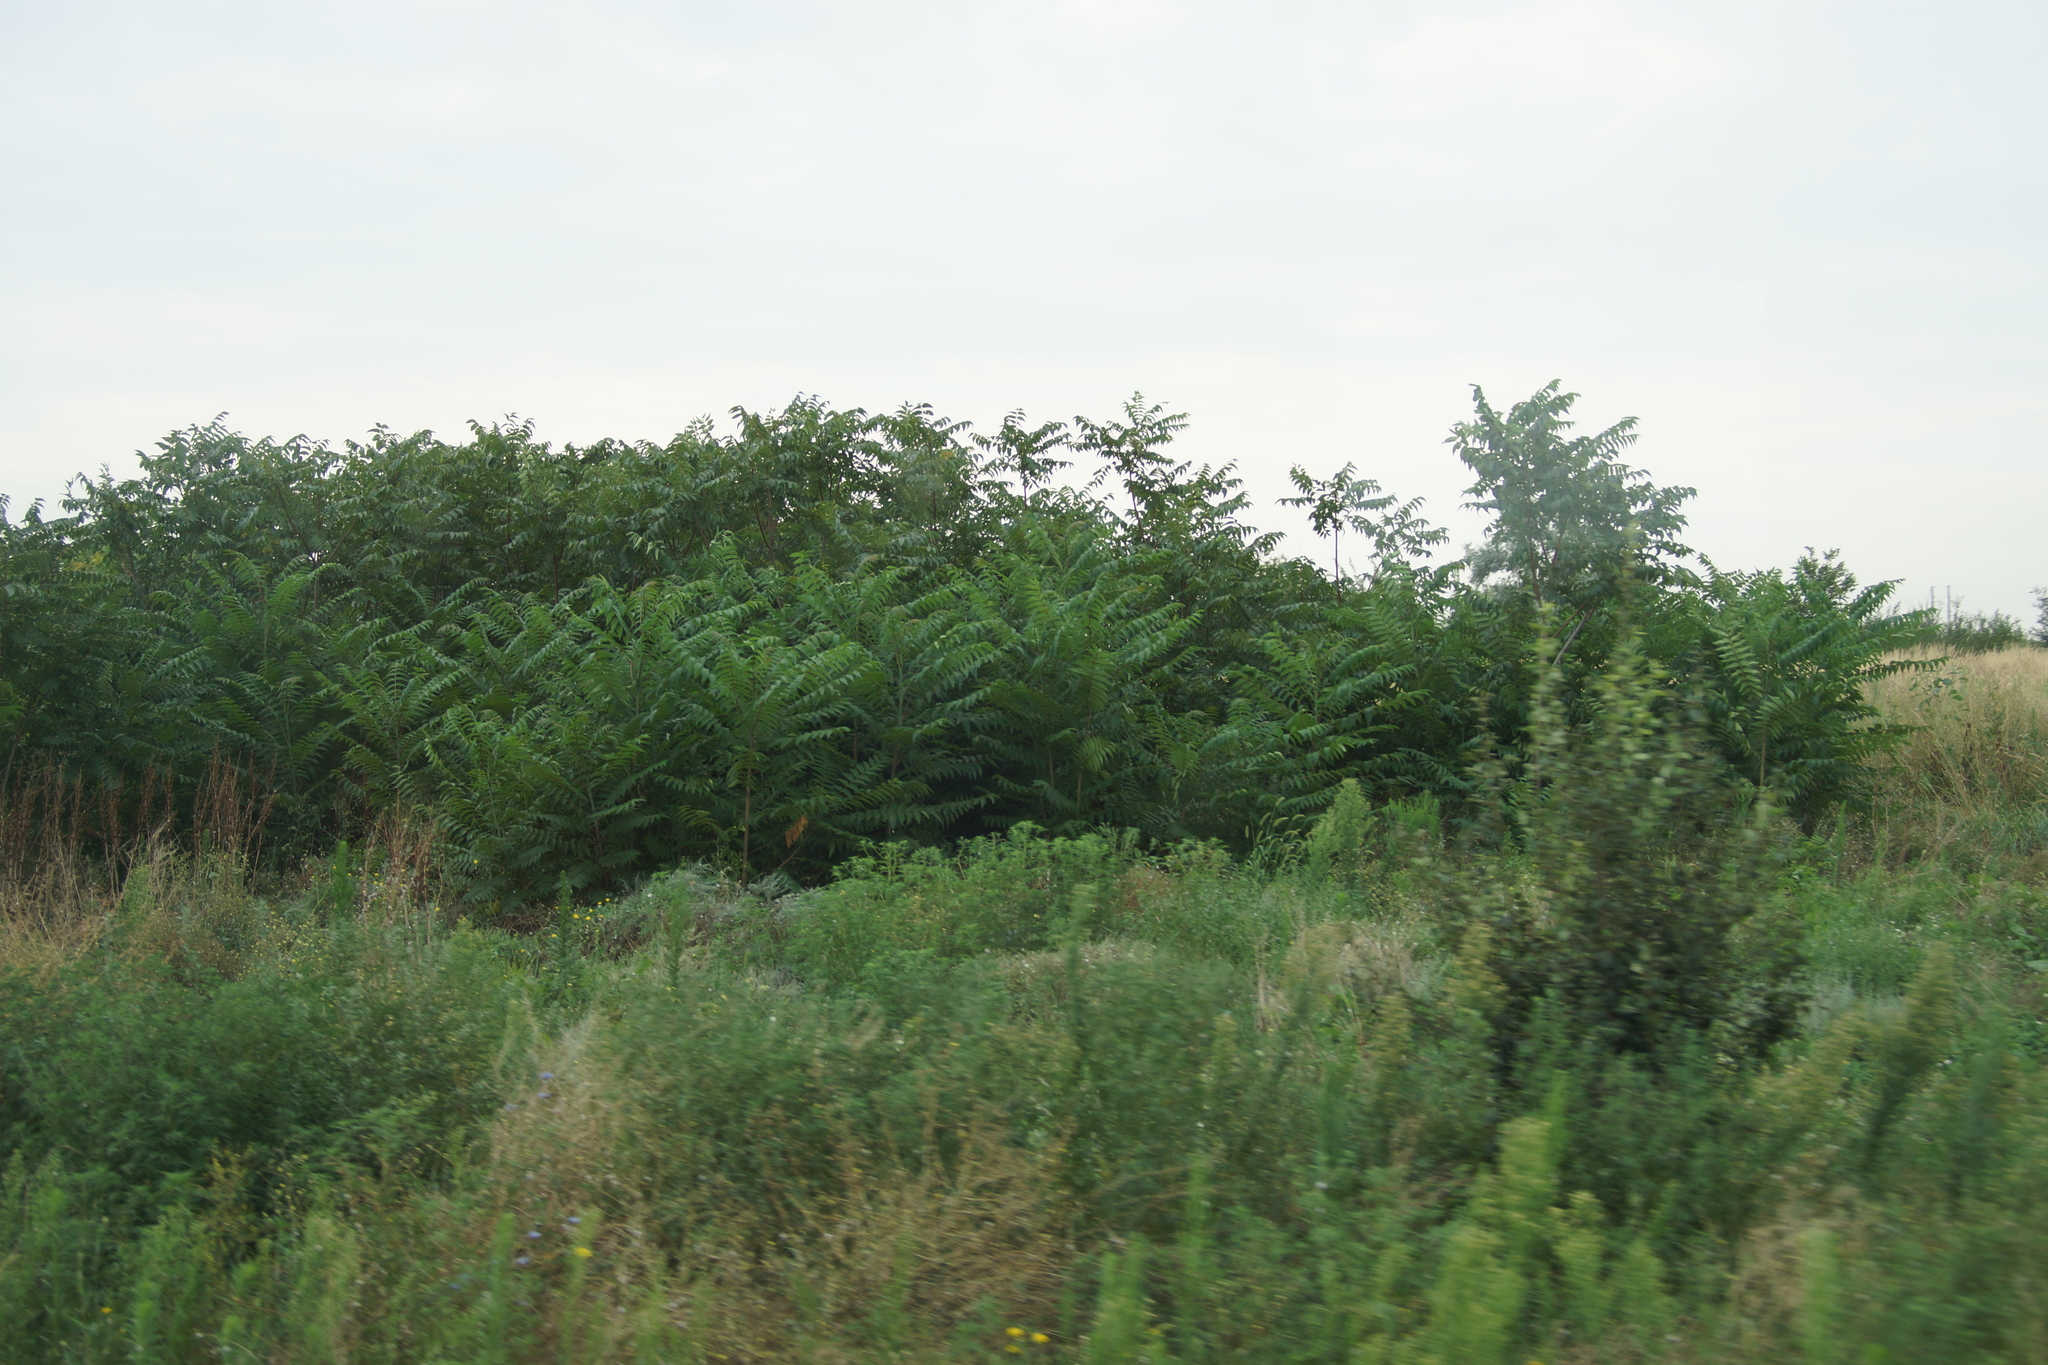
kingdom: Plantae
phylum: Tracheophyta
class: Magnoliopsida
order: Sapindales
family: Simaroubaceae
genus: Ailanthus
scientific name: Ailanthus altissima
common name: Tree-of-heaven
